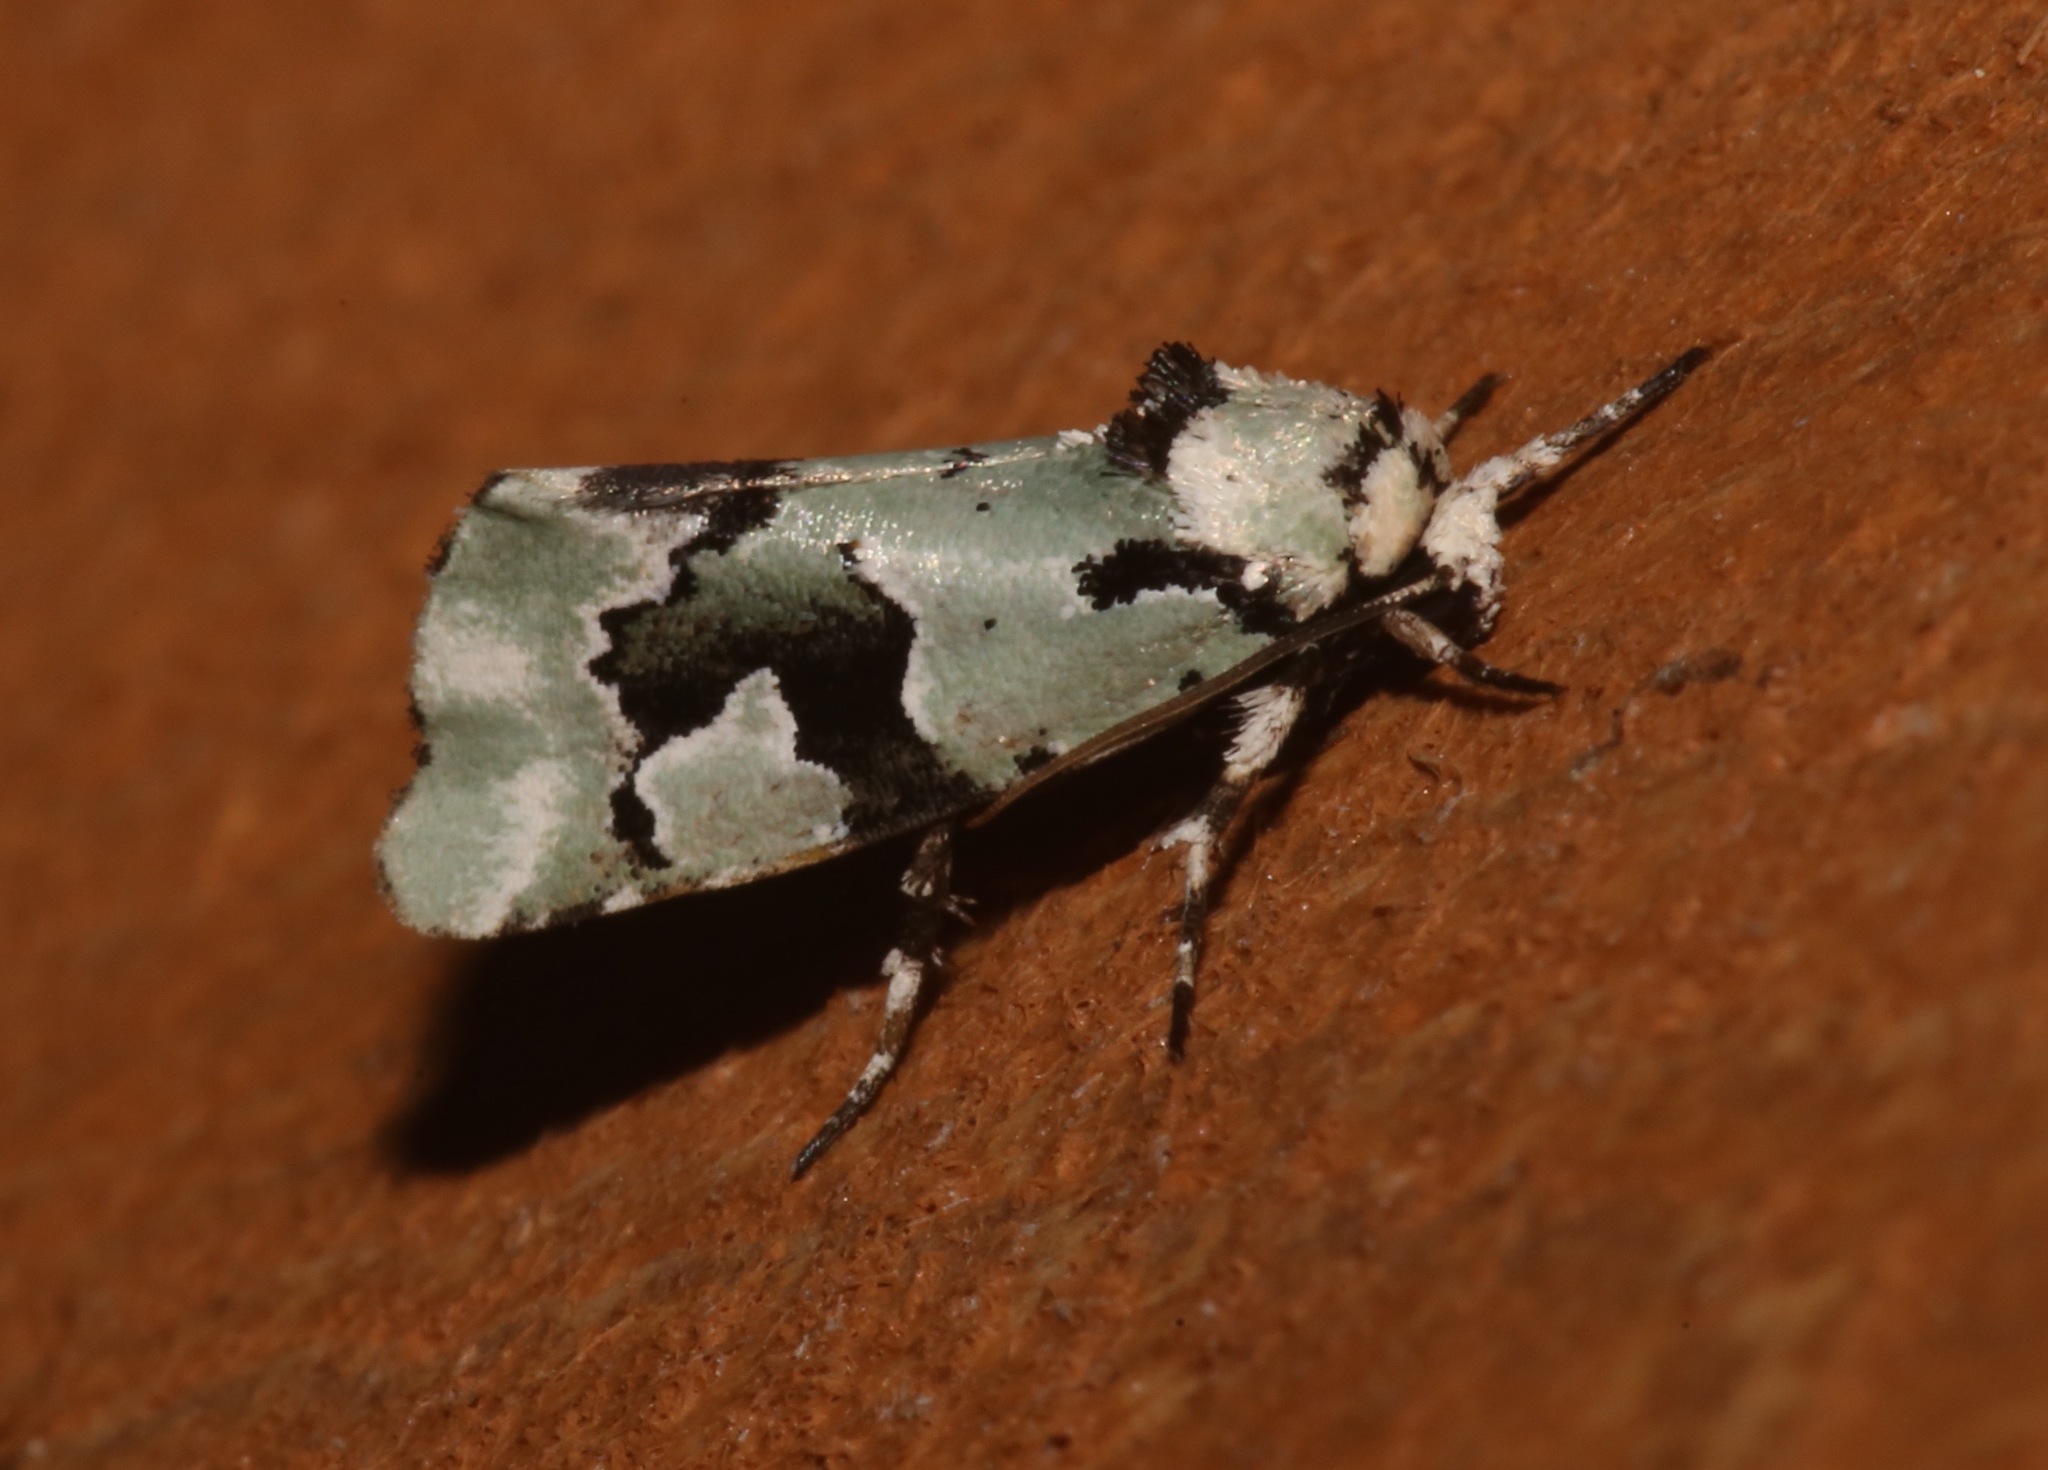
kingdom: Animalia
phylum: Arthropoda
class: Insecta
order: Lepidoptera
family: Noctuidae
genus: Emarginea
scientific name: Emarginea percara
